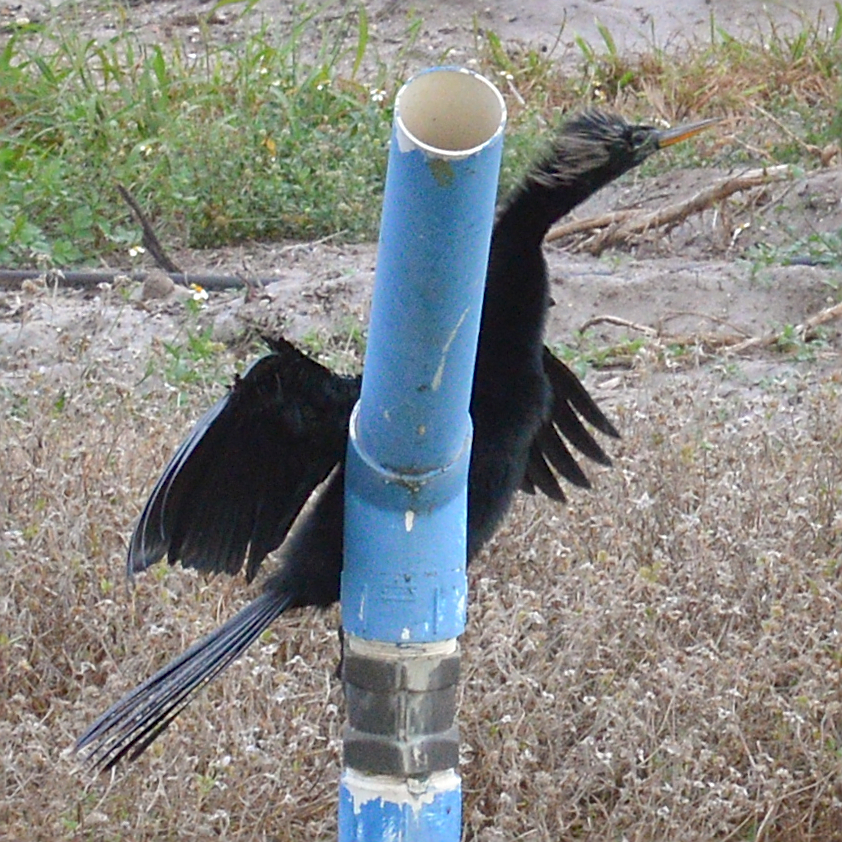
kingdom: Animalia
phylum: Chordata
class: Aves
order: Suliformes
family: Anhingidae
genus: Anhinga
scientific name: Anhinga anhinga
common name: Anhinga
